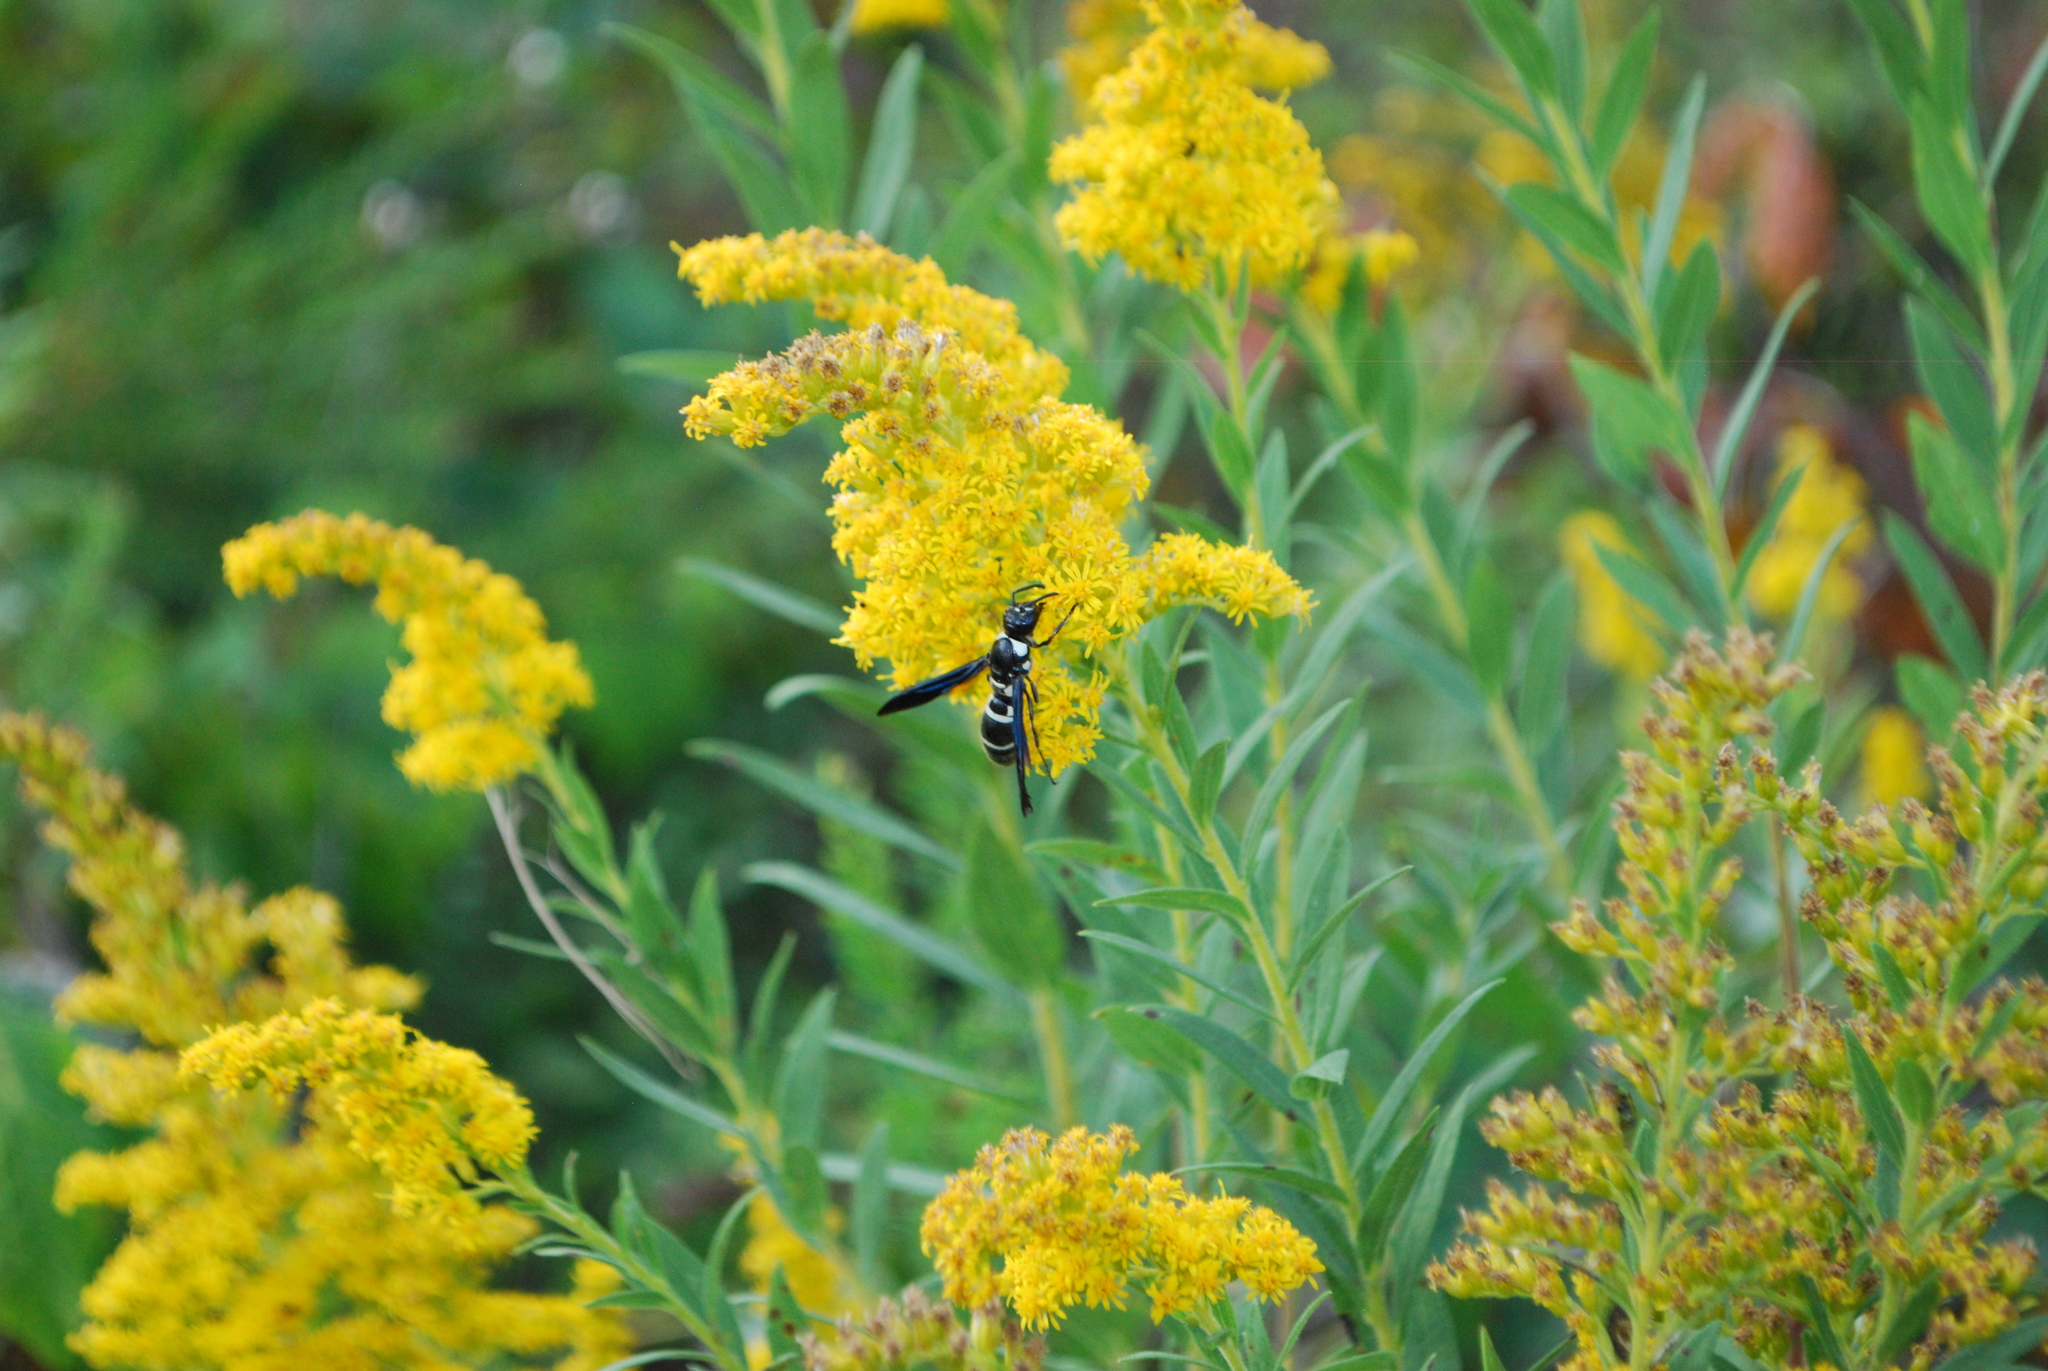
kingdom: Animalia
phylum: Arthropoda
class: Insecta
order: Hymenoptera
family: Eumenidae
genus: Pseudodynerus
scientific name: Pseudodynerus quadrisectus
